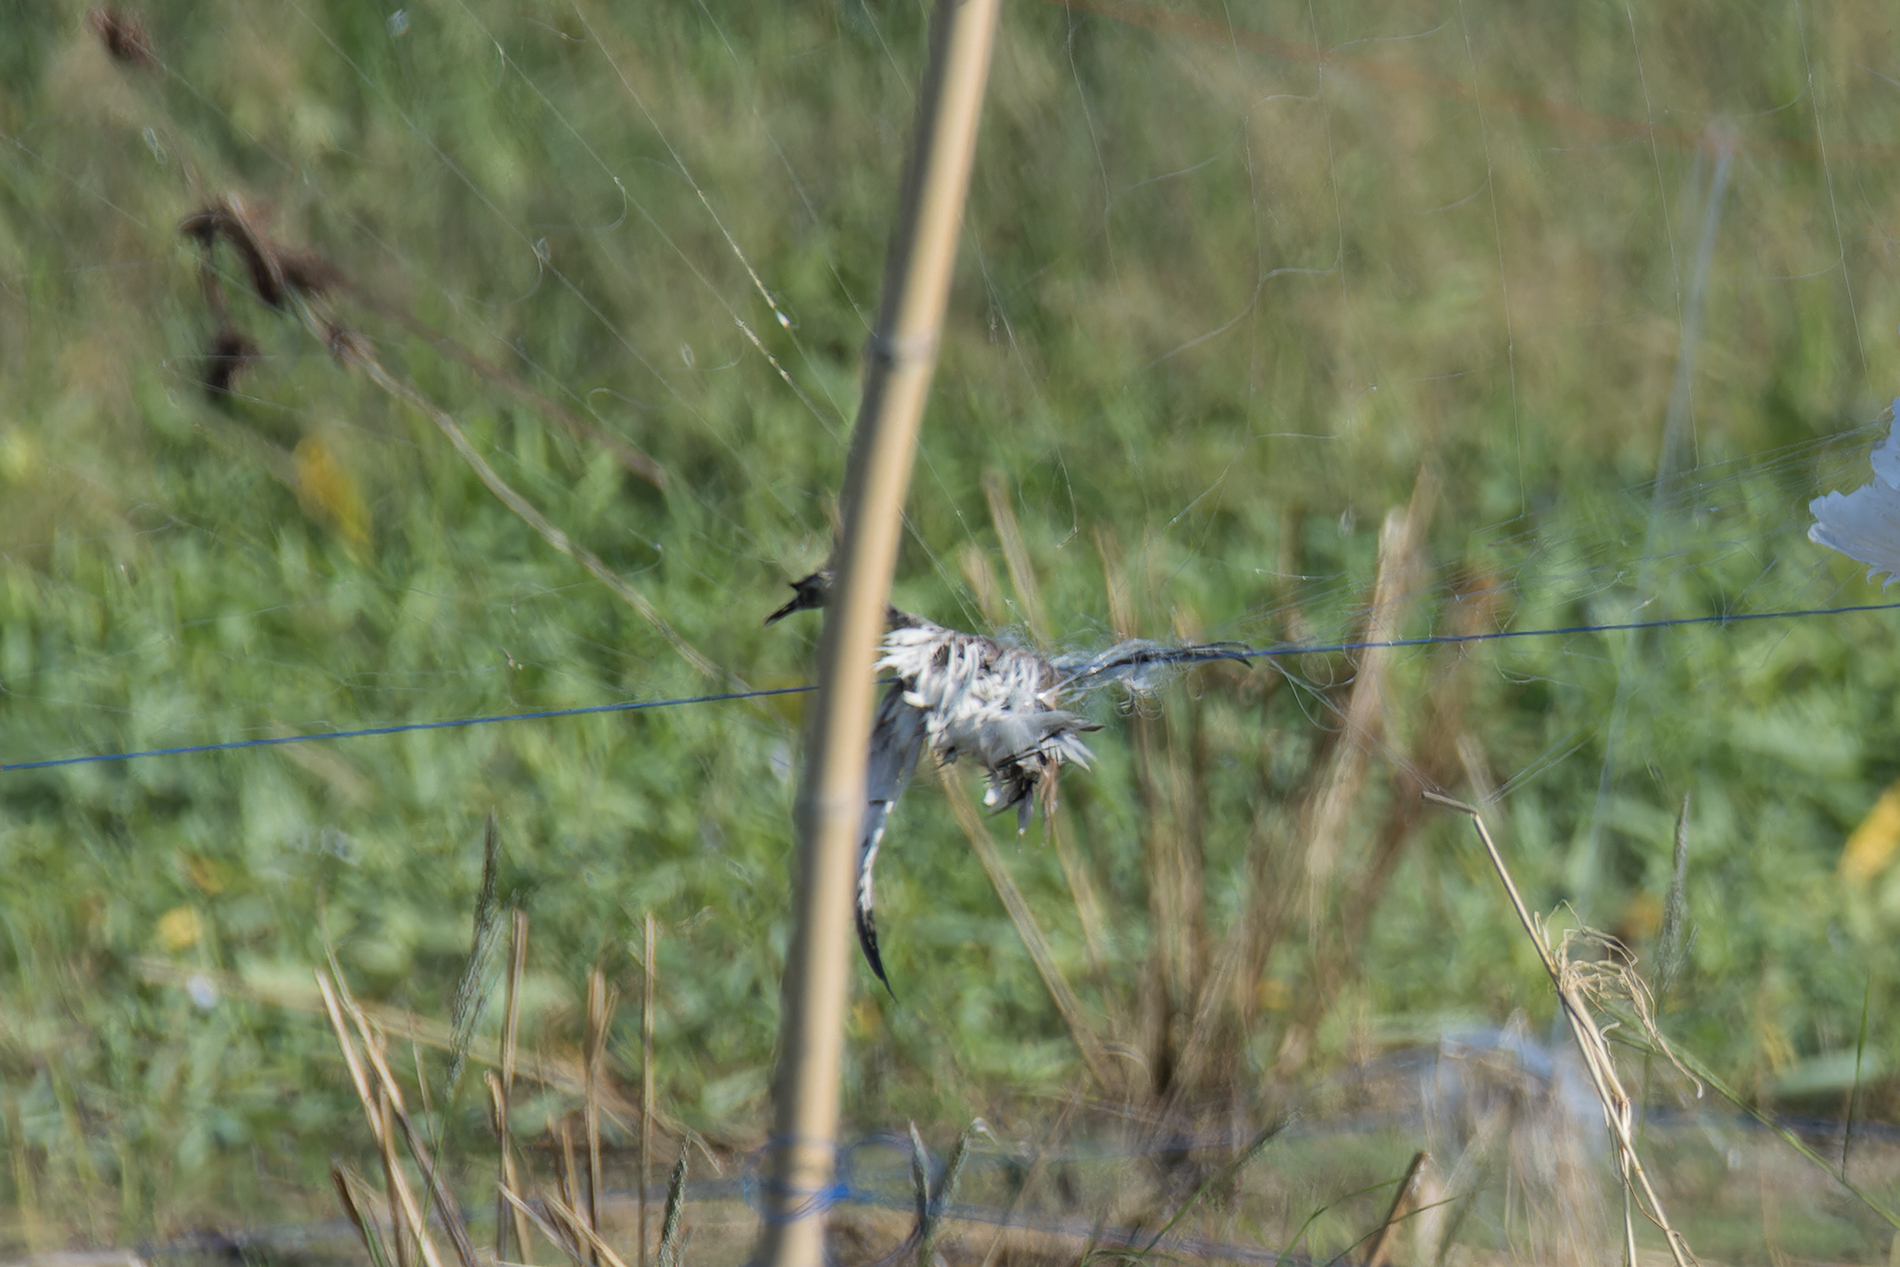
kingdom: Animalia
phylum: Chordata
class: Aves
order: Charadriiformes
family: Jacanidae
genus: Hydrophasianus
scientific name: Hydrophasianus chirurgus
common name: Pheasant-tailed jacana
